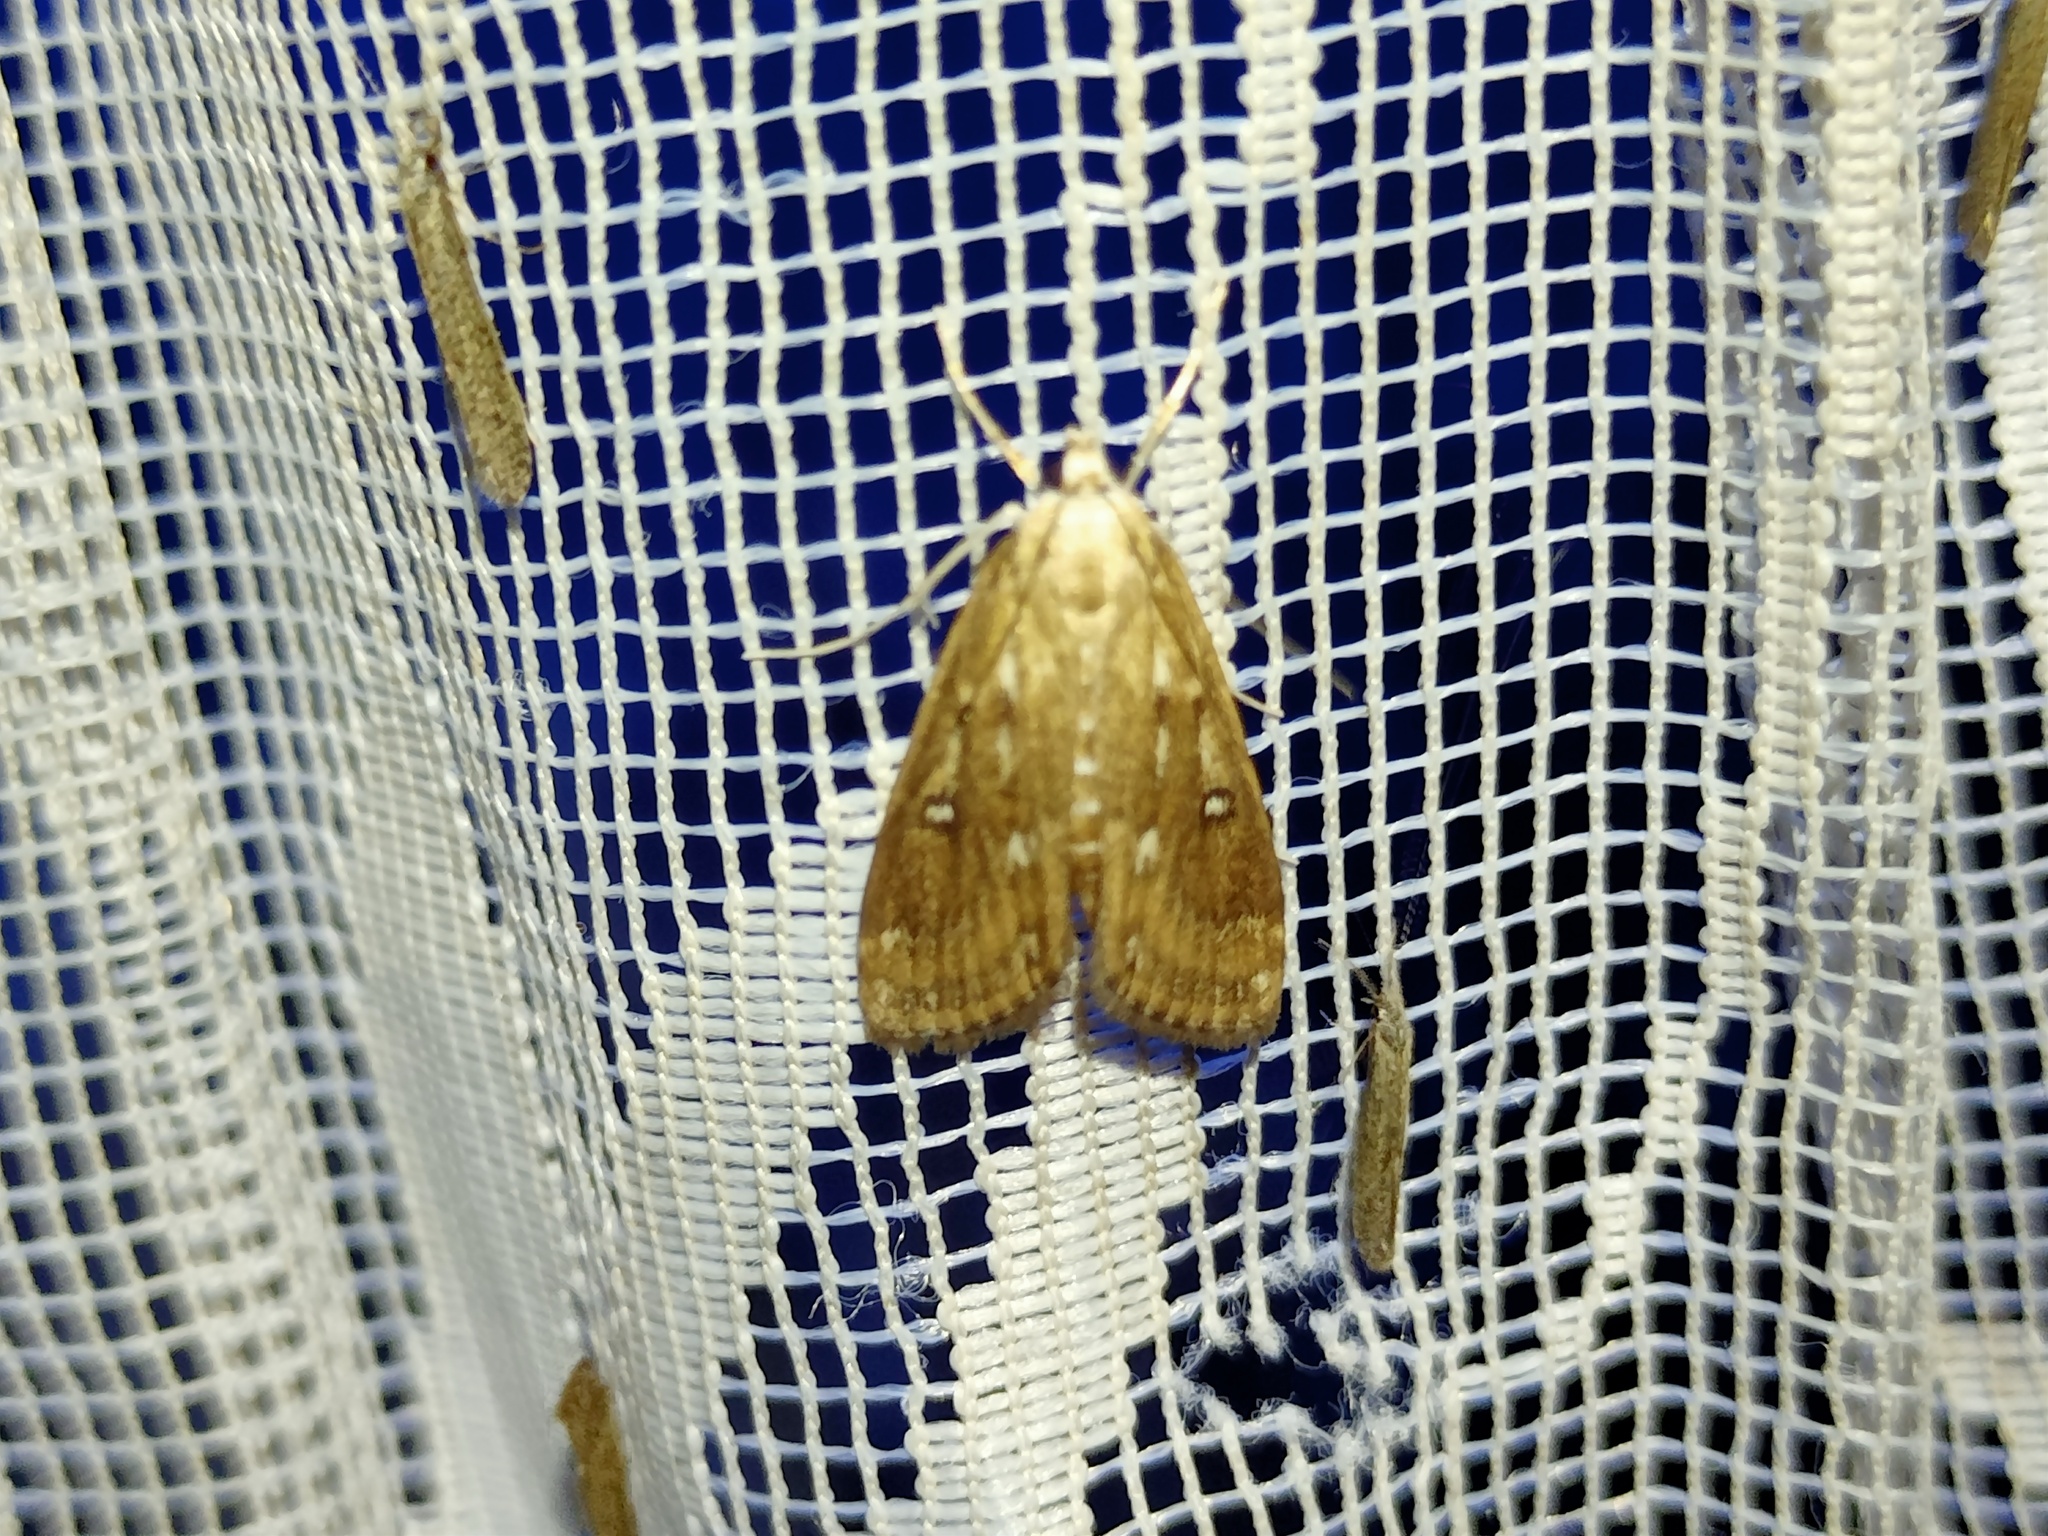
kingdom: Animalia
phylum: Arthropoda
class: Insecta
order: Lepidoptera
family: Crambidae
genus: Parapoynx
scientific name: Parapoynx stratiotata
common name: Ringed china-mark
